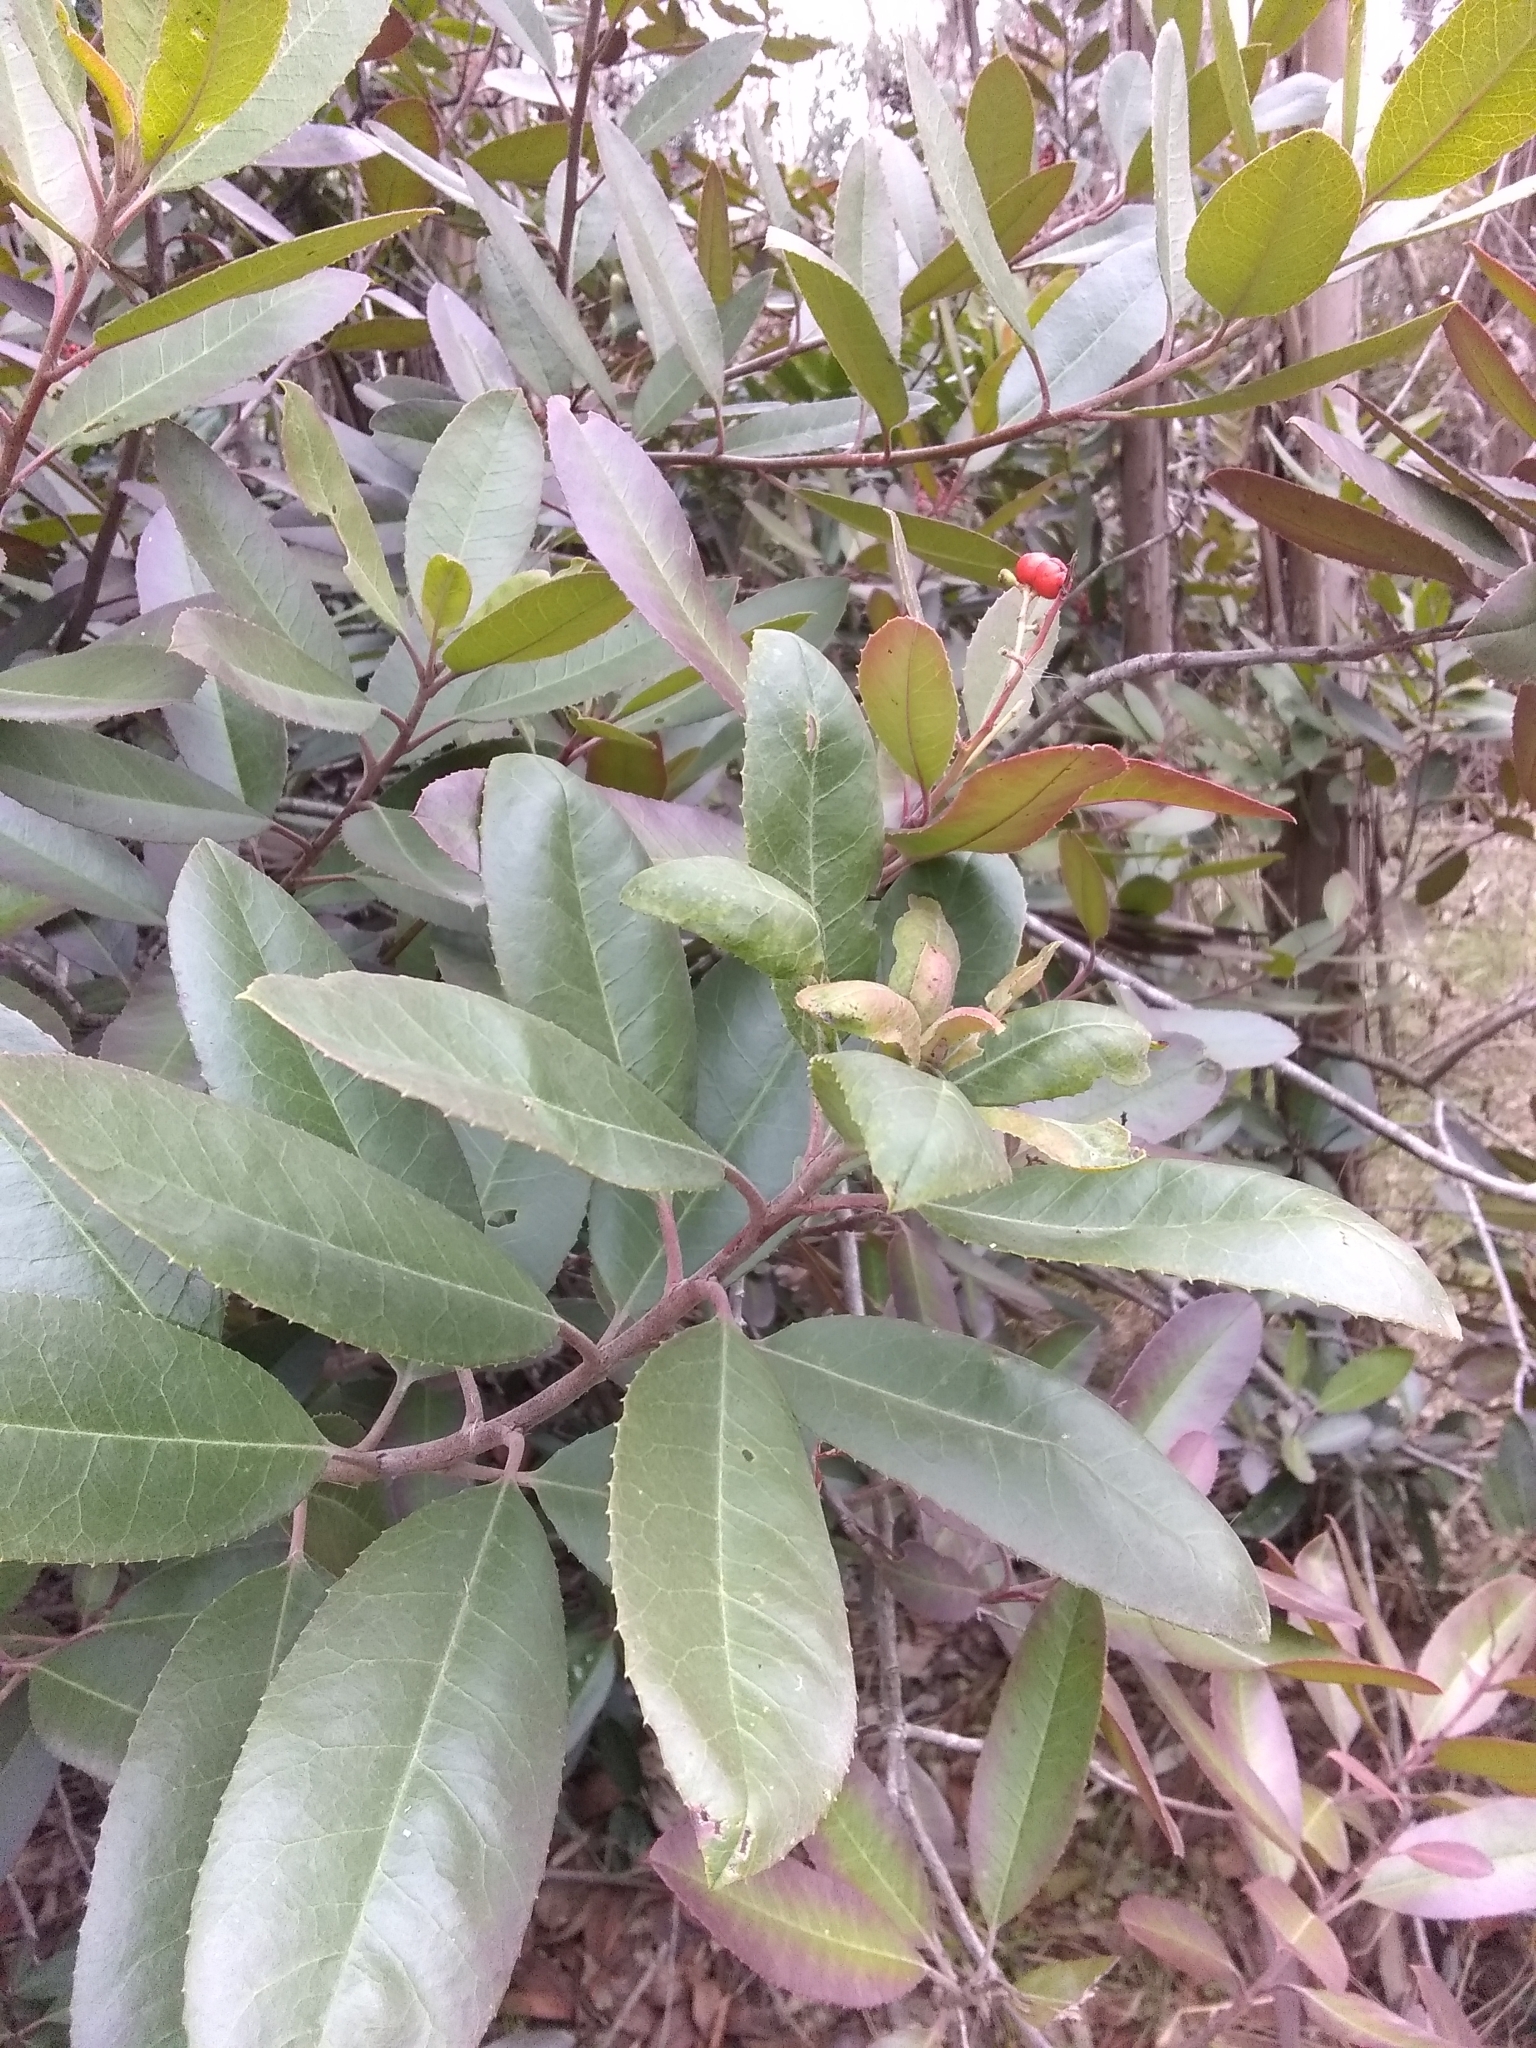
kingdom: Plantae
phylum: Tracheophyta
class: Magnoliopsida
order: Rosales
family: Rosaceae
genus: Heteromeles
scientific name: Heteromeles arbutifolia
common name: California-holly
